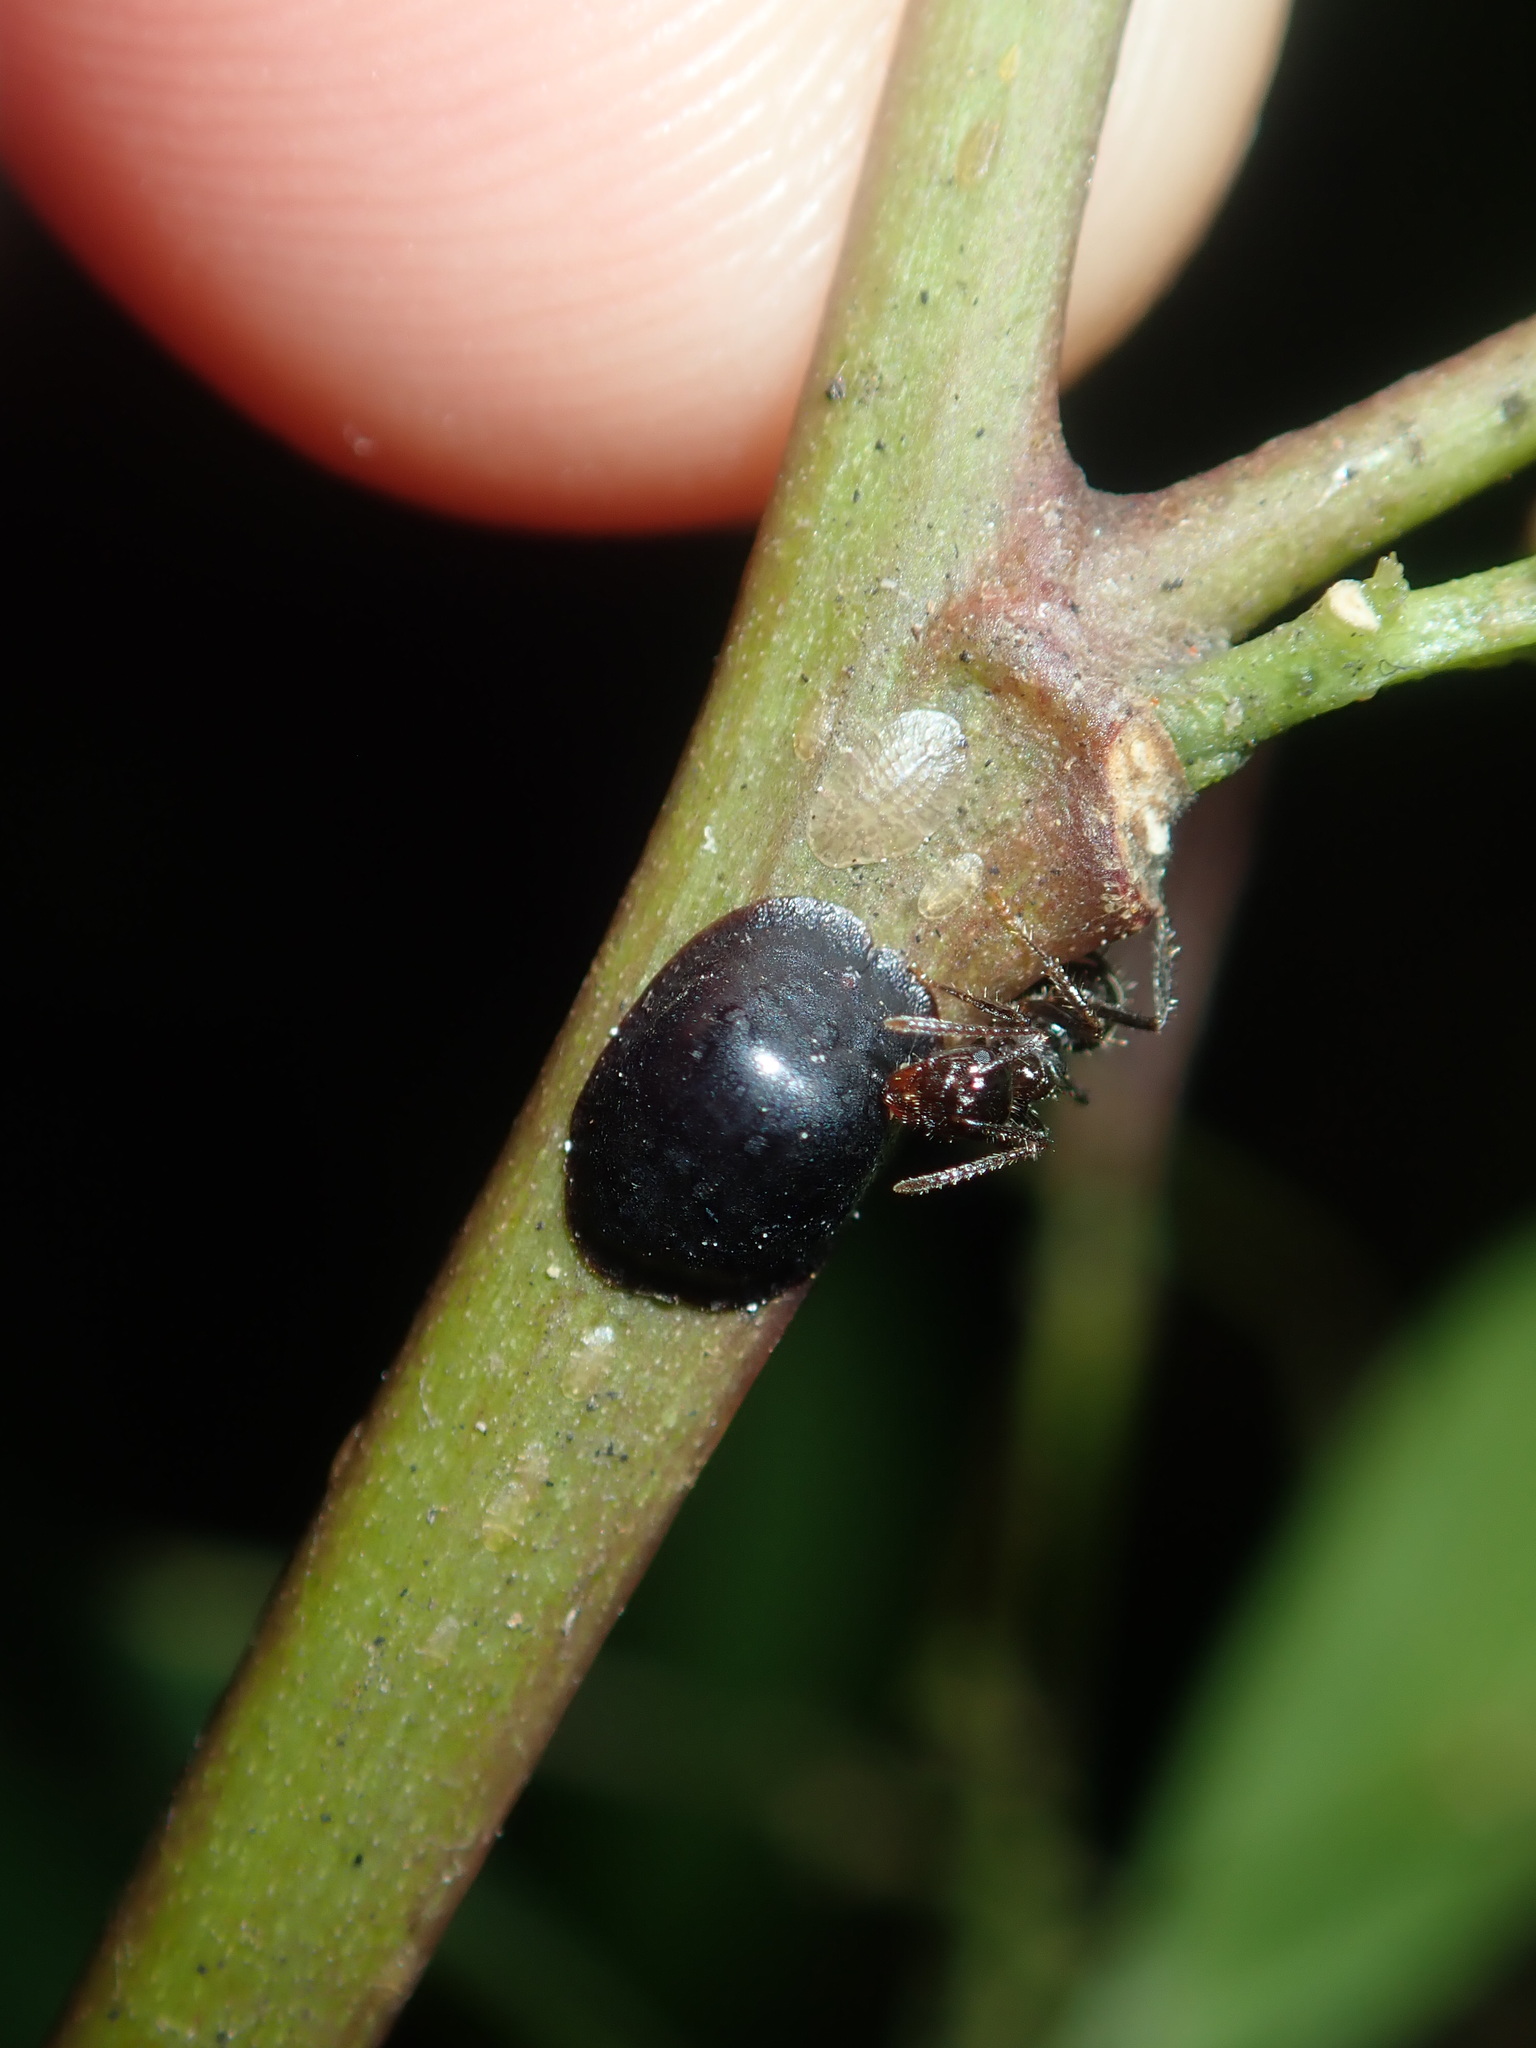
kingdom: Animalia
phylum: Arthropoda
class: Insecta
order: Hemiptera
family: Coccidae
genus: Parasaissetia
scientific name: Parasaissetia nigra
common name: Black scale
